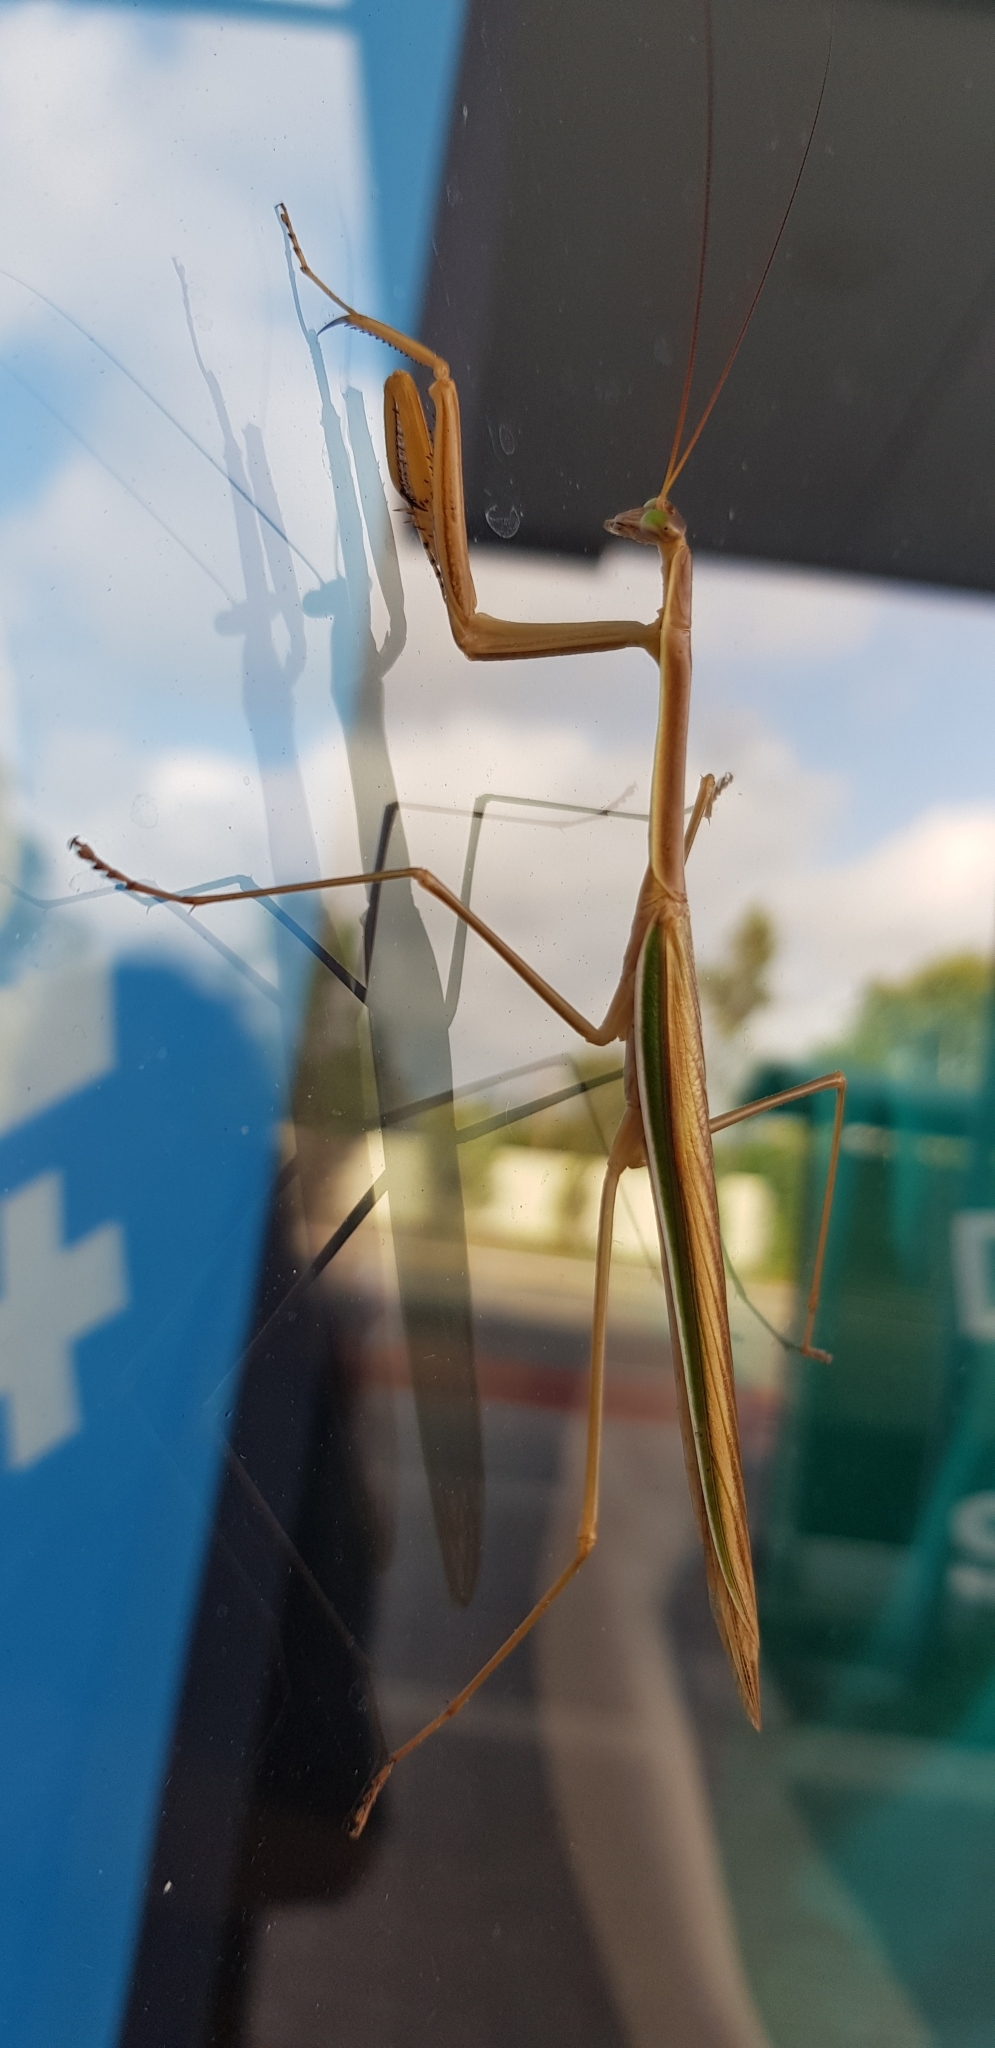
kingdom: Animalia
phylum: Arthropoda
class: Insecta
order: Mantodea
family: Mantidae
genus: Tenodera
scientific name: Tenodera australasiae
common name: Purple-winged mantis
